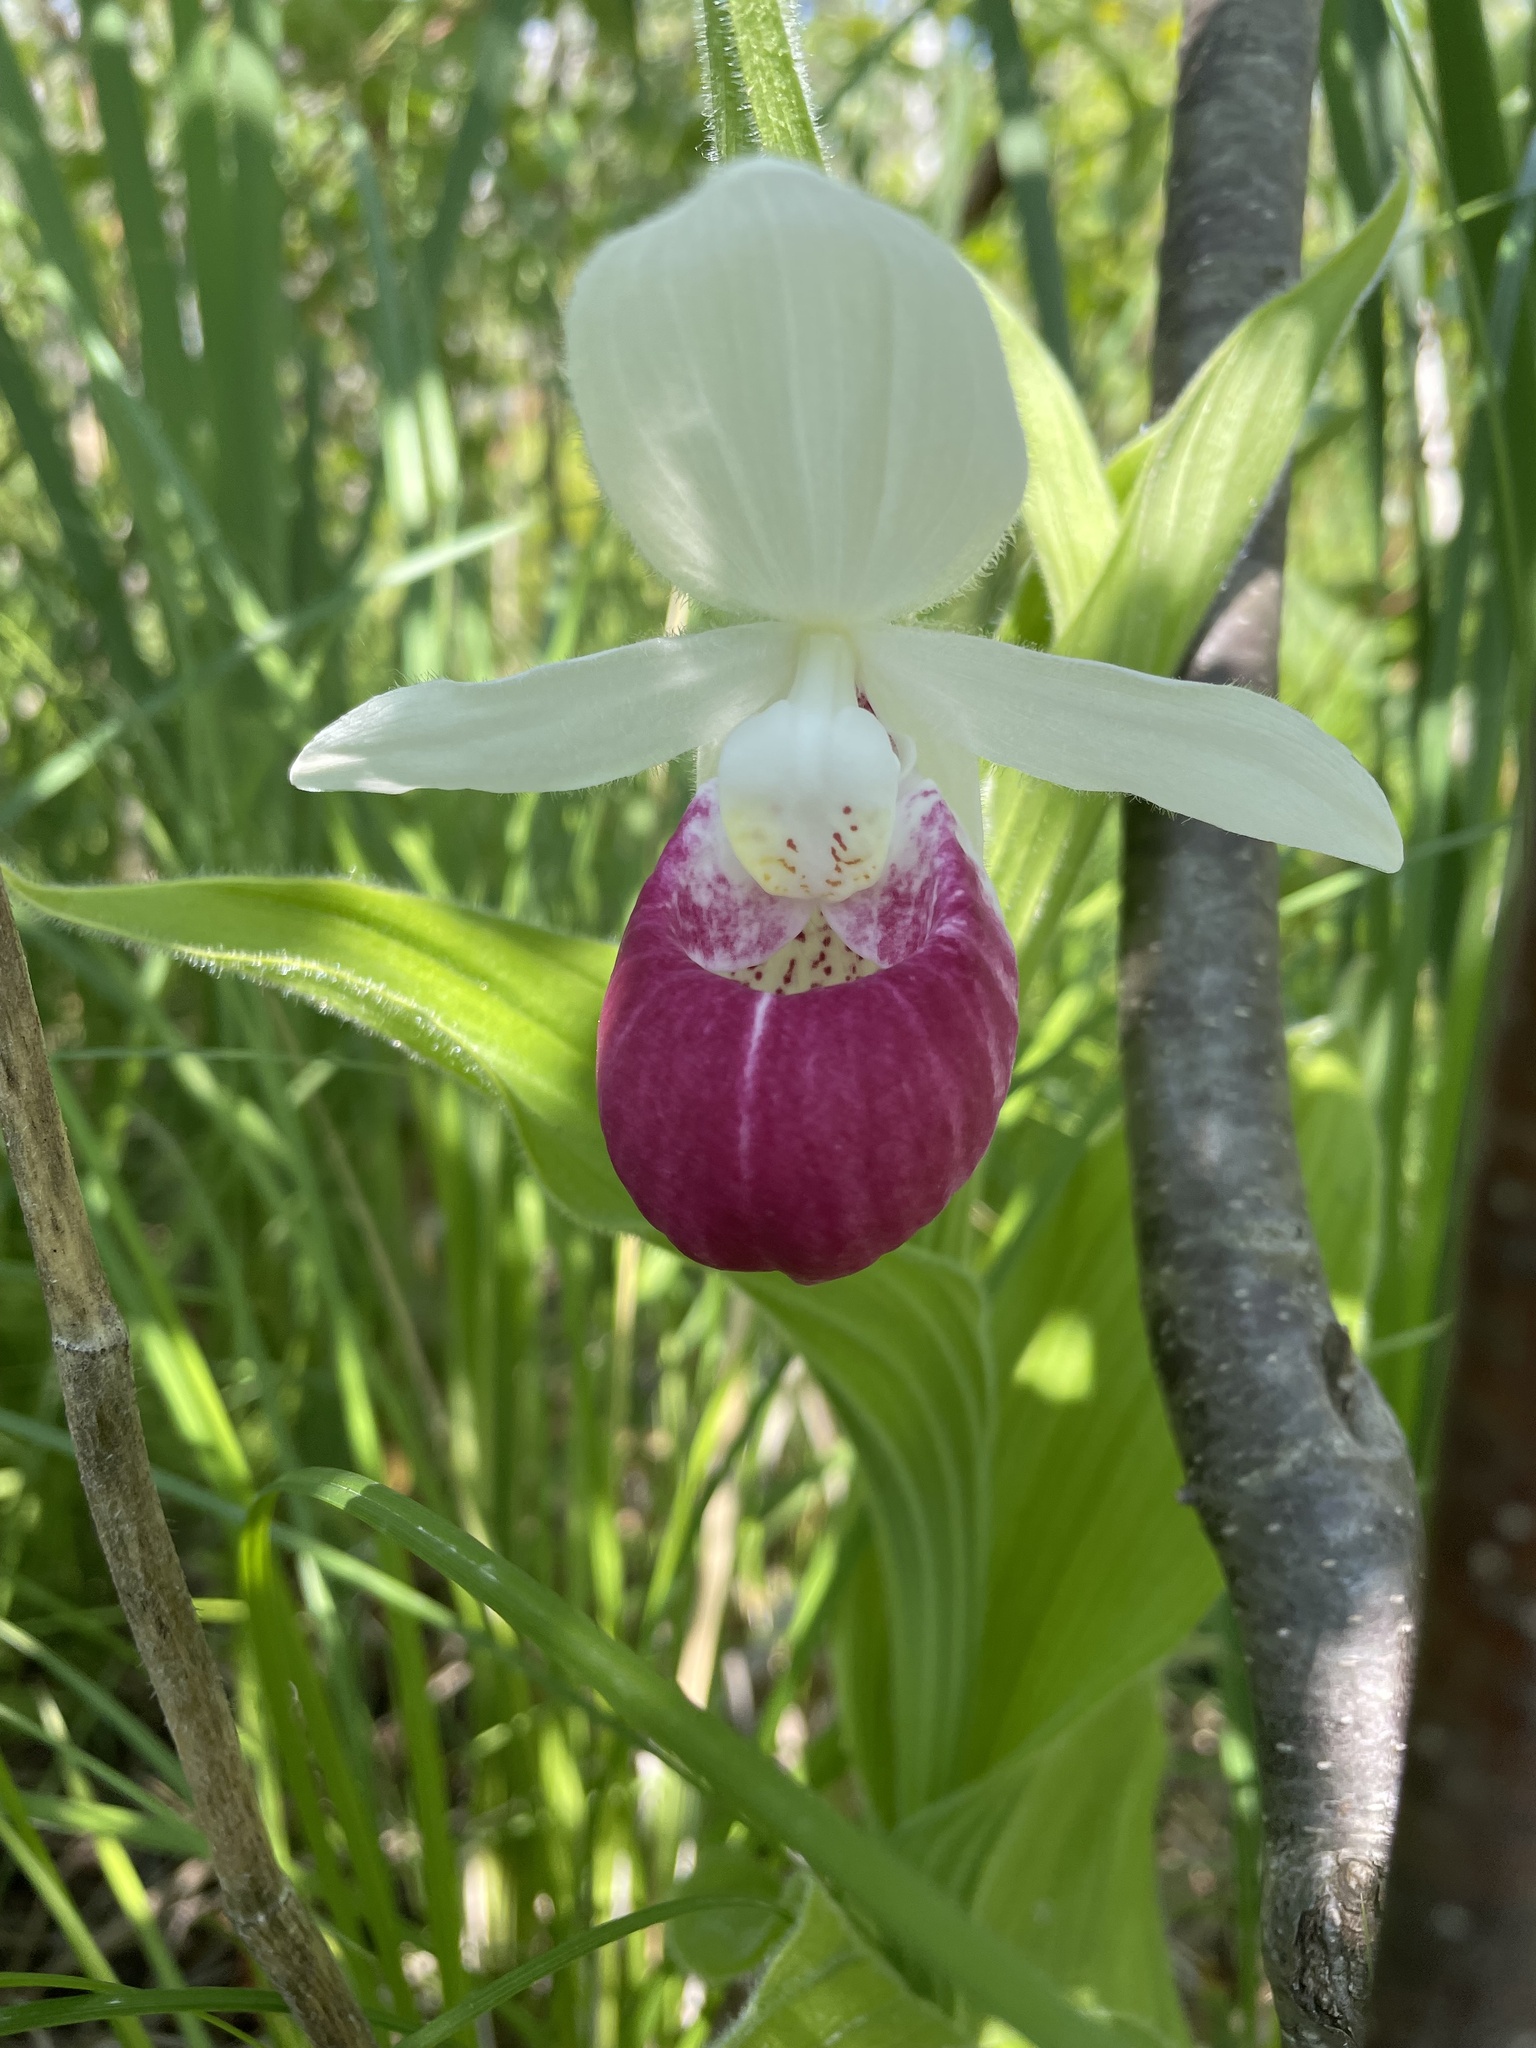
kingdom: Plantae
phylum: Tracheophyta
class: Liliopsida
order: Asparagales
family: Orchidaceae
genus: Cypripedium
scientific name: Cypripedium reginae
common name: Queen lady's-slipper
